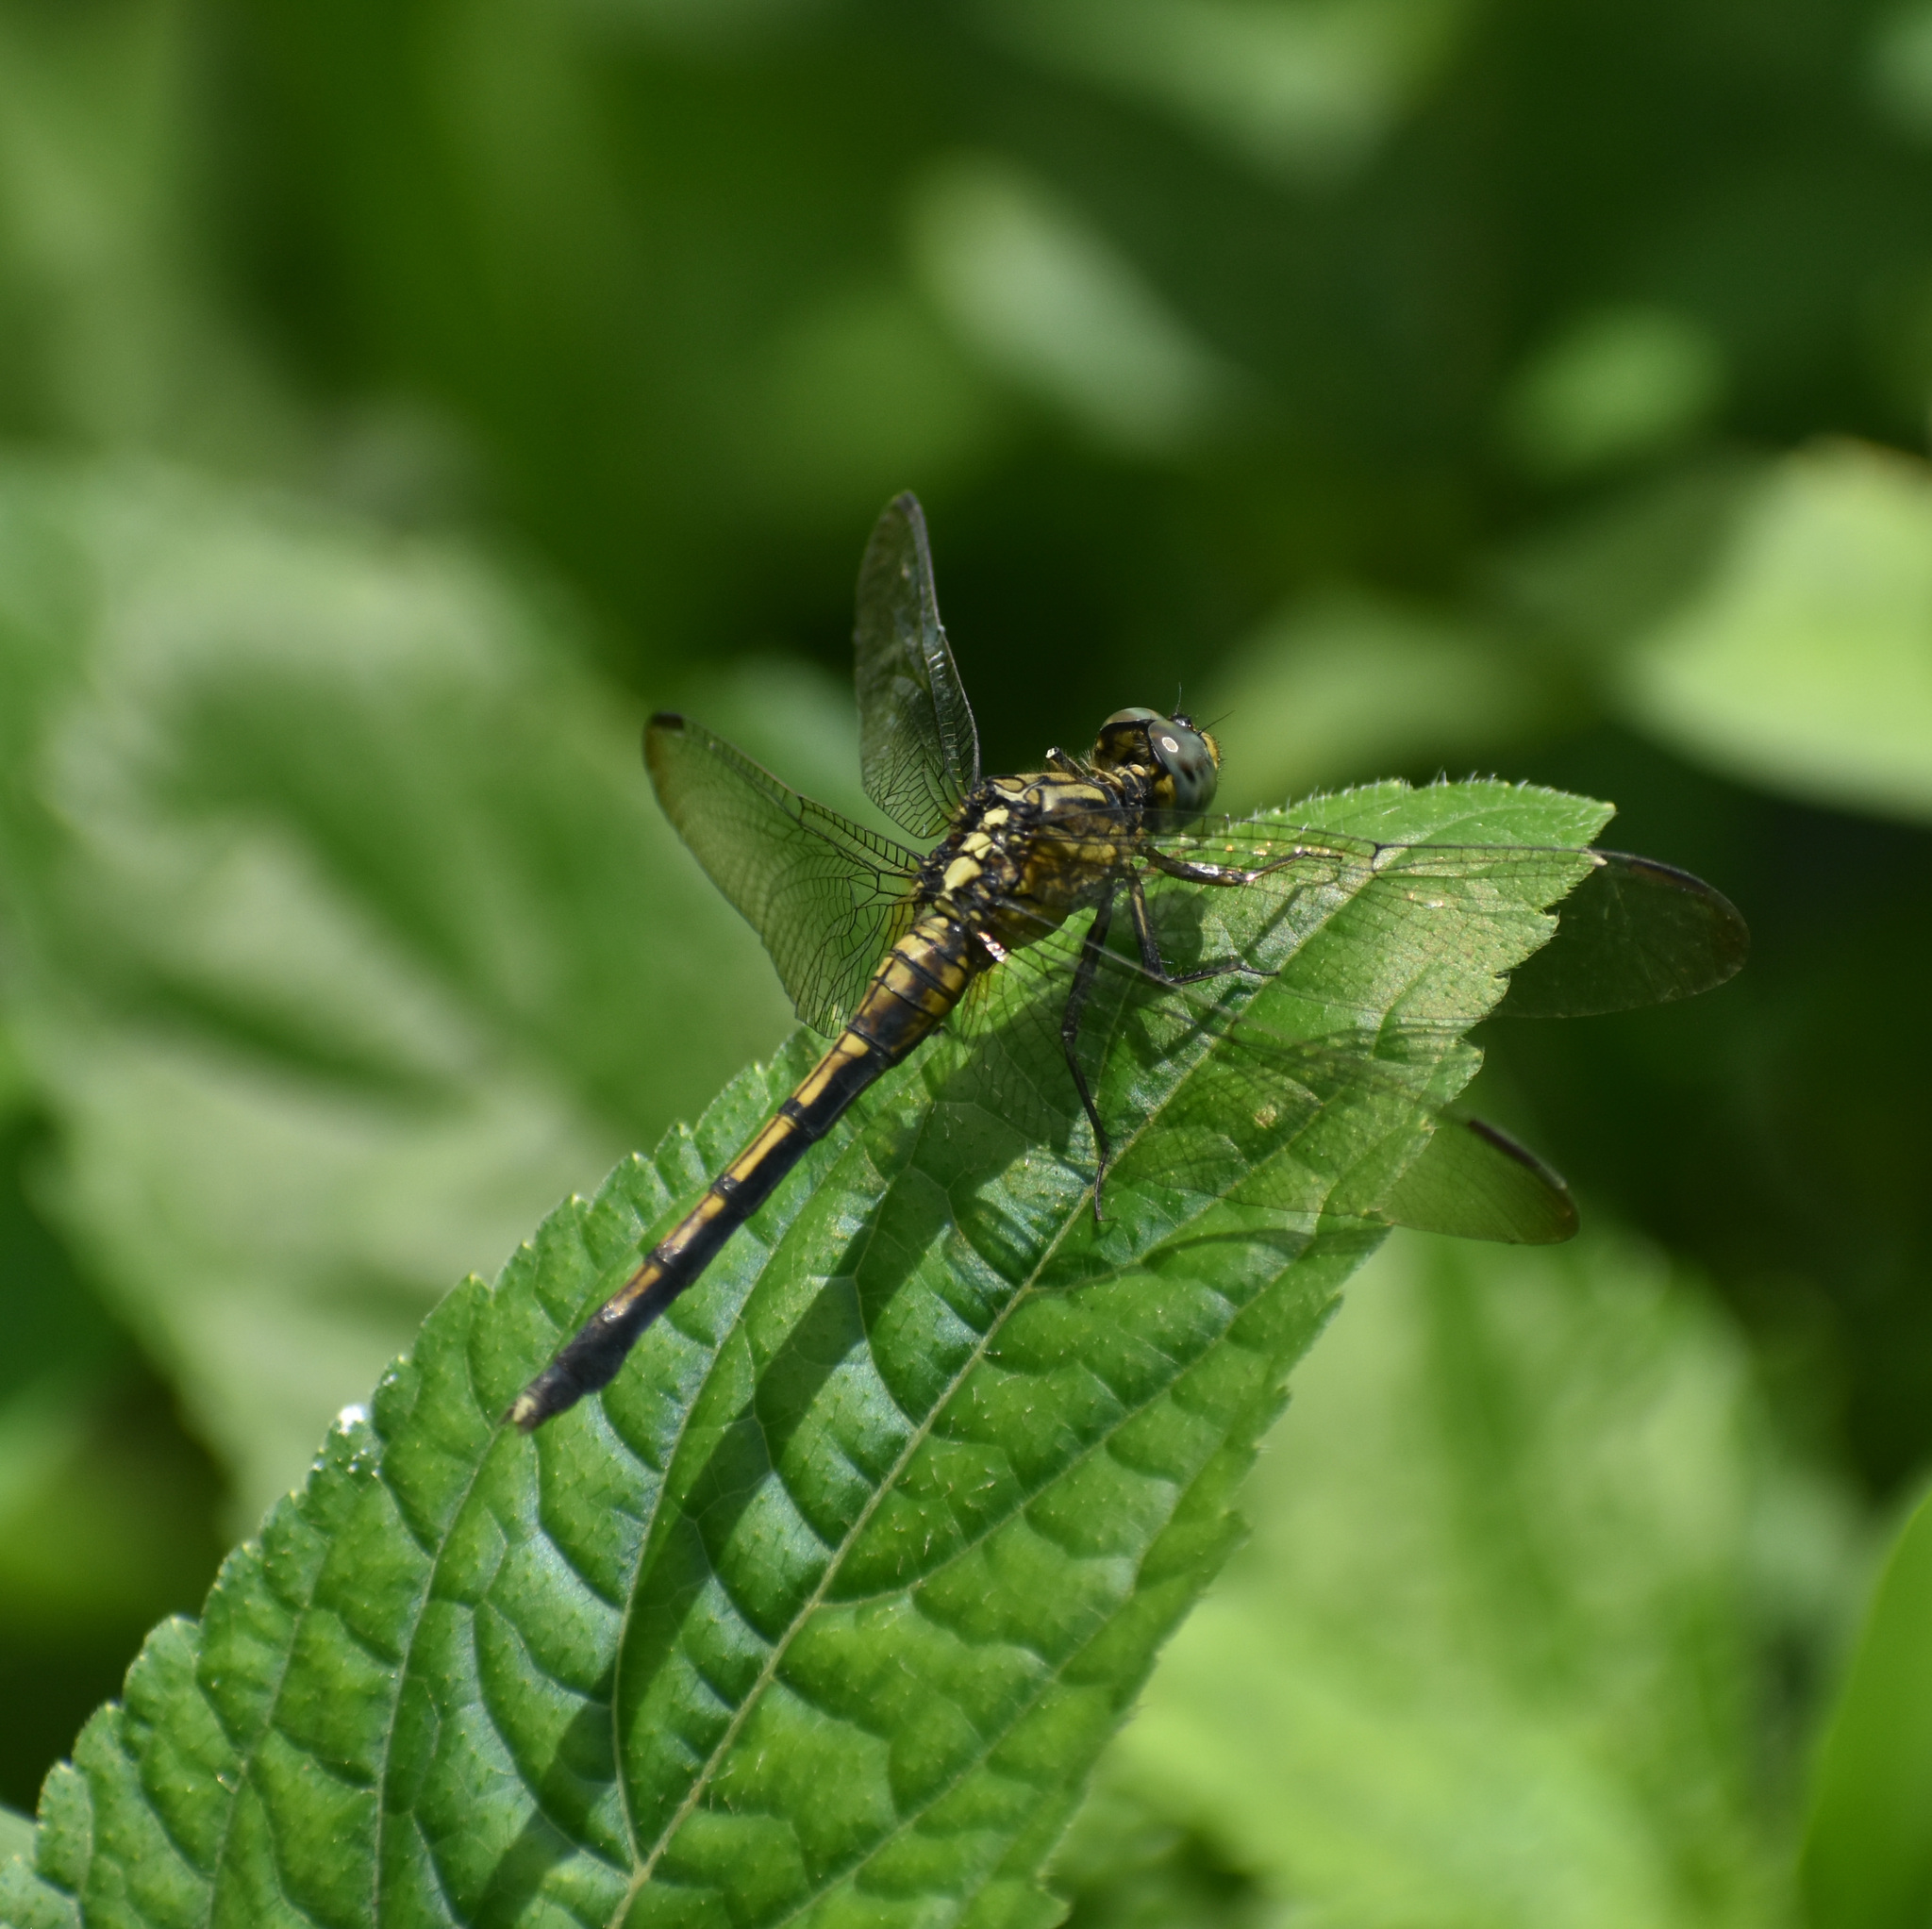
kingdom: Animalia
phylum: Arthropoda
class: Insecta
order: Odonata
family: Libellulidae
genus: Orthetrum
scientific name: Orthetrum luzonicum
